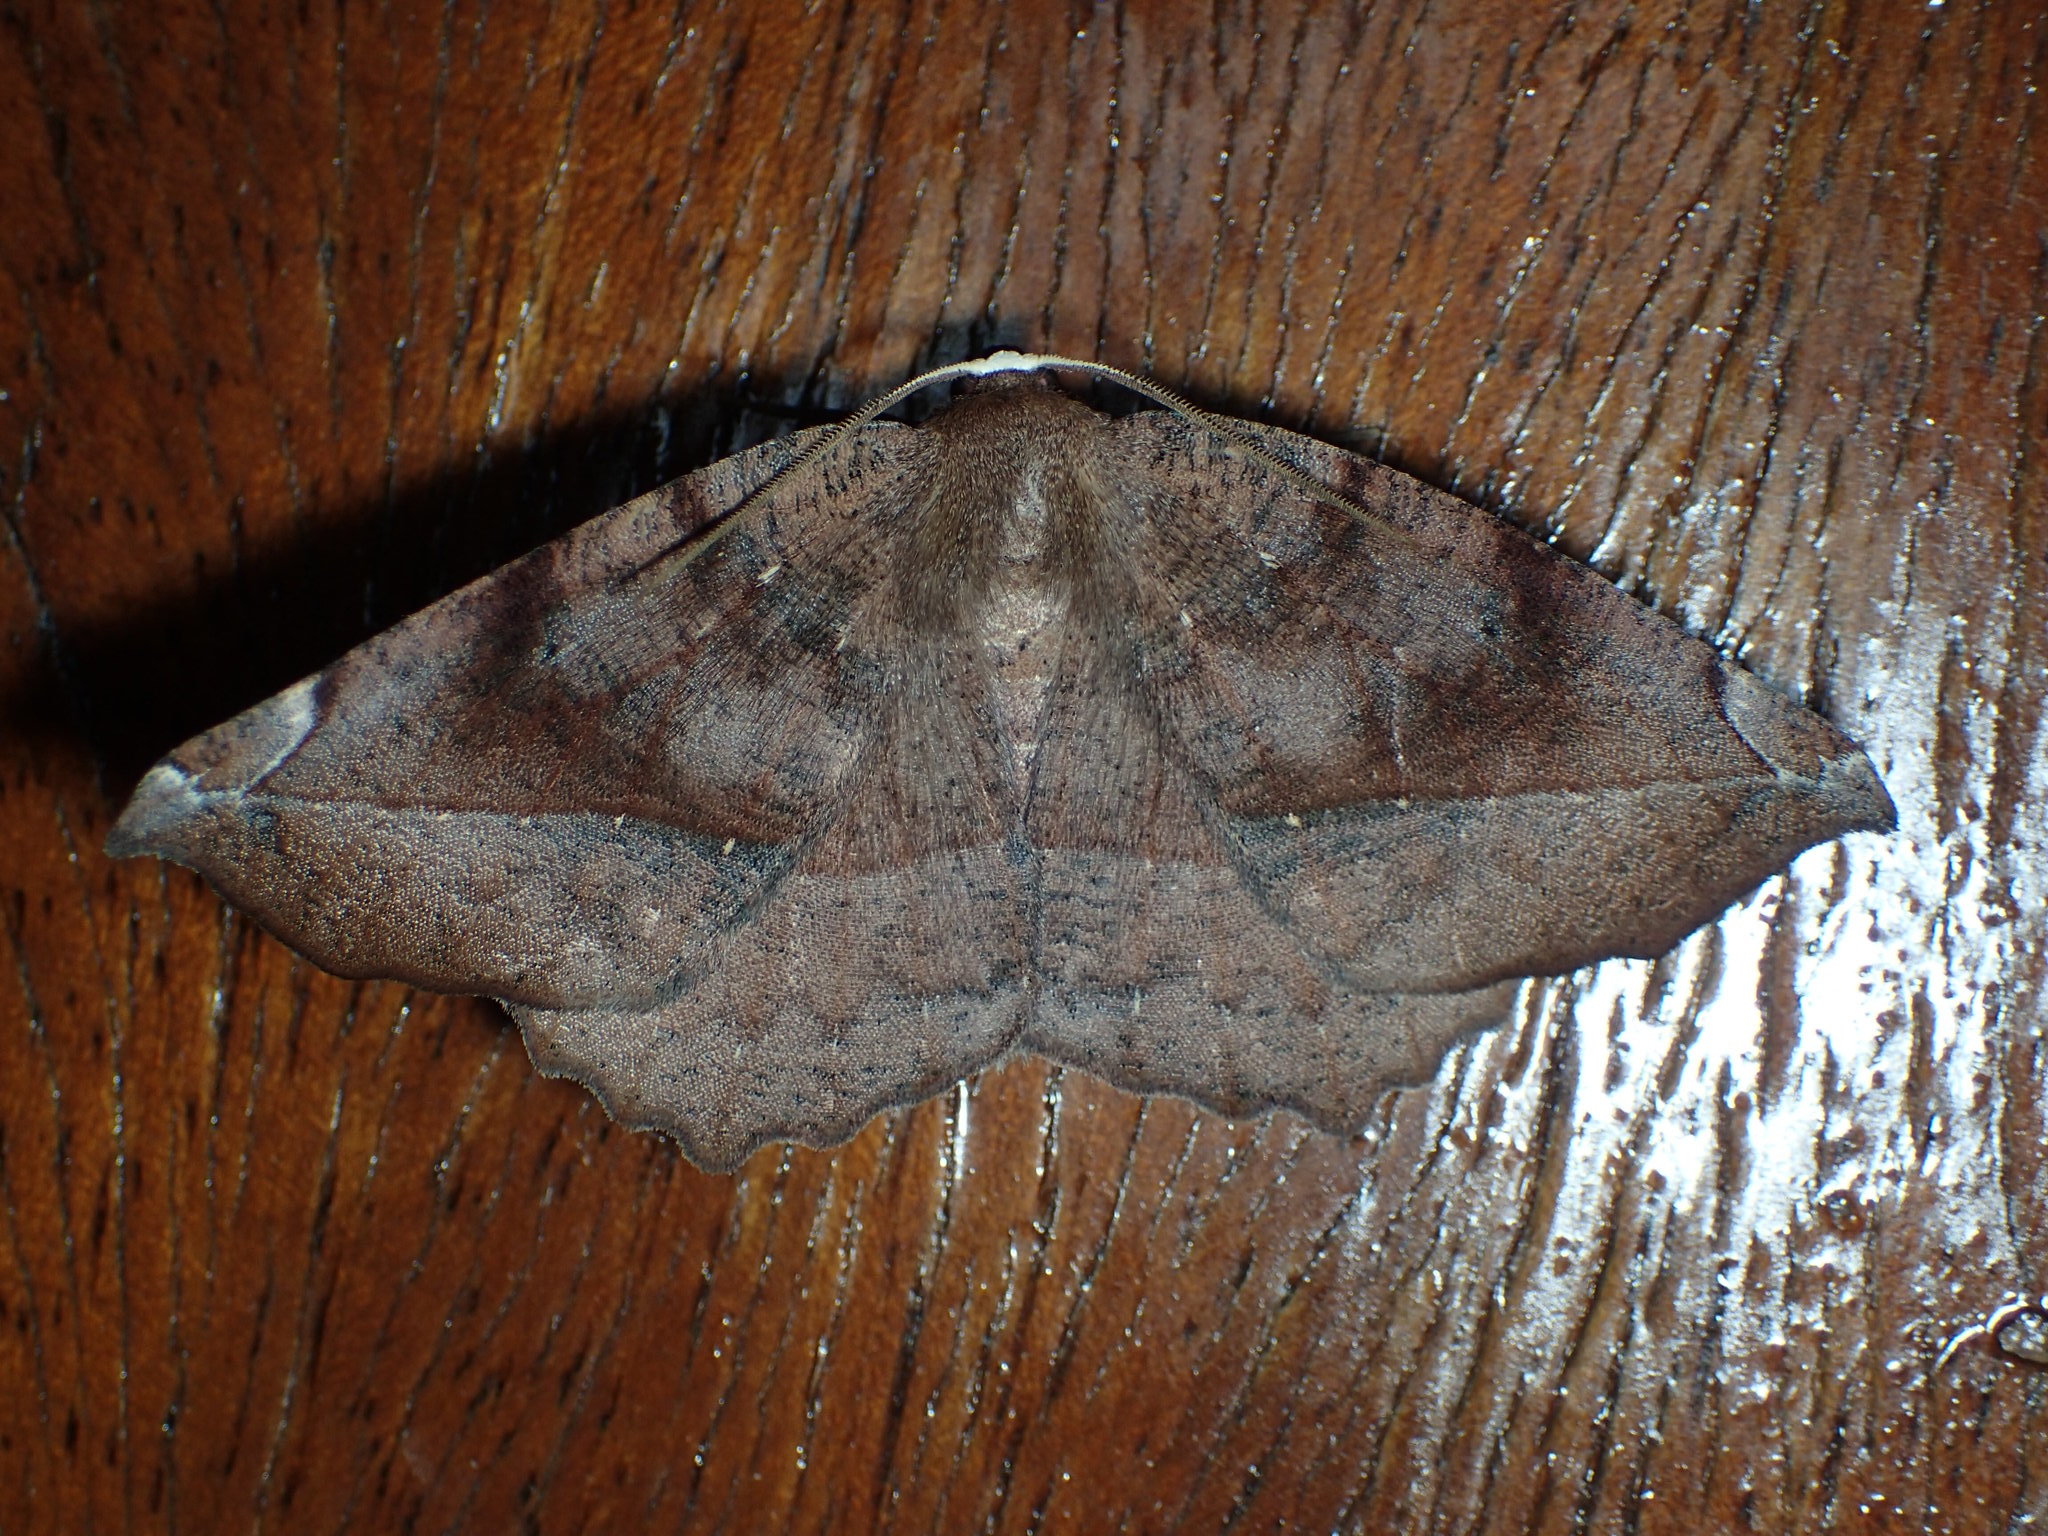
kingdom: Animalia
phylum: Arthropoda
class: Insecta
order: Lepidoptera
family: Geometridae
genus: Eutrapela
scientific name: Eutrapela clemataria
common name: Curved-toothed geometer
